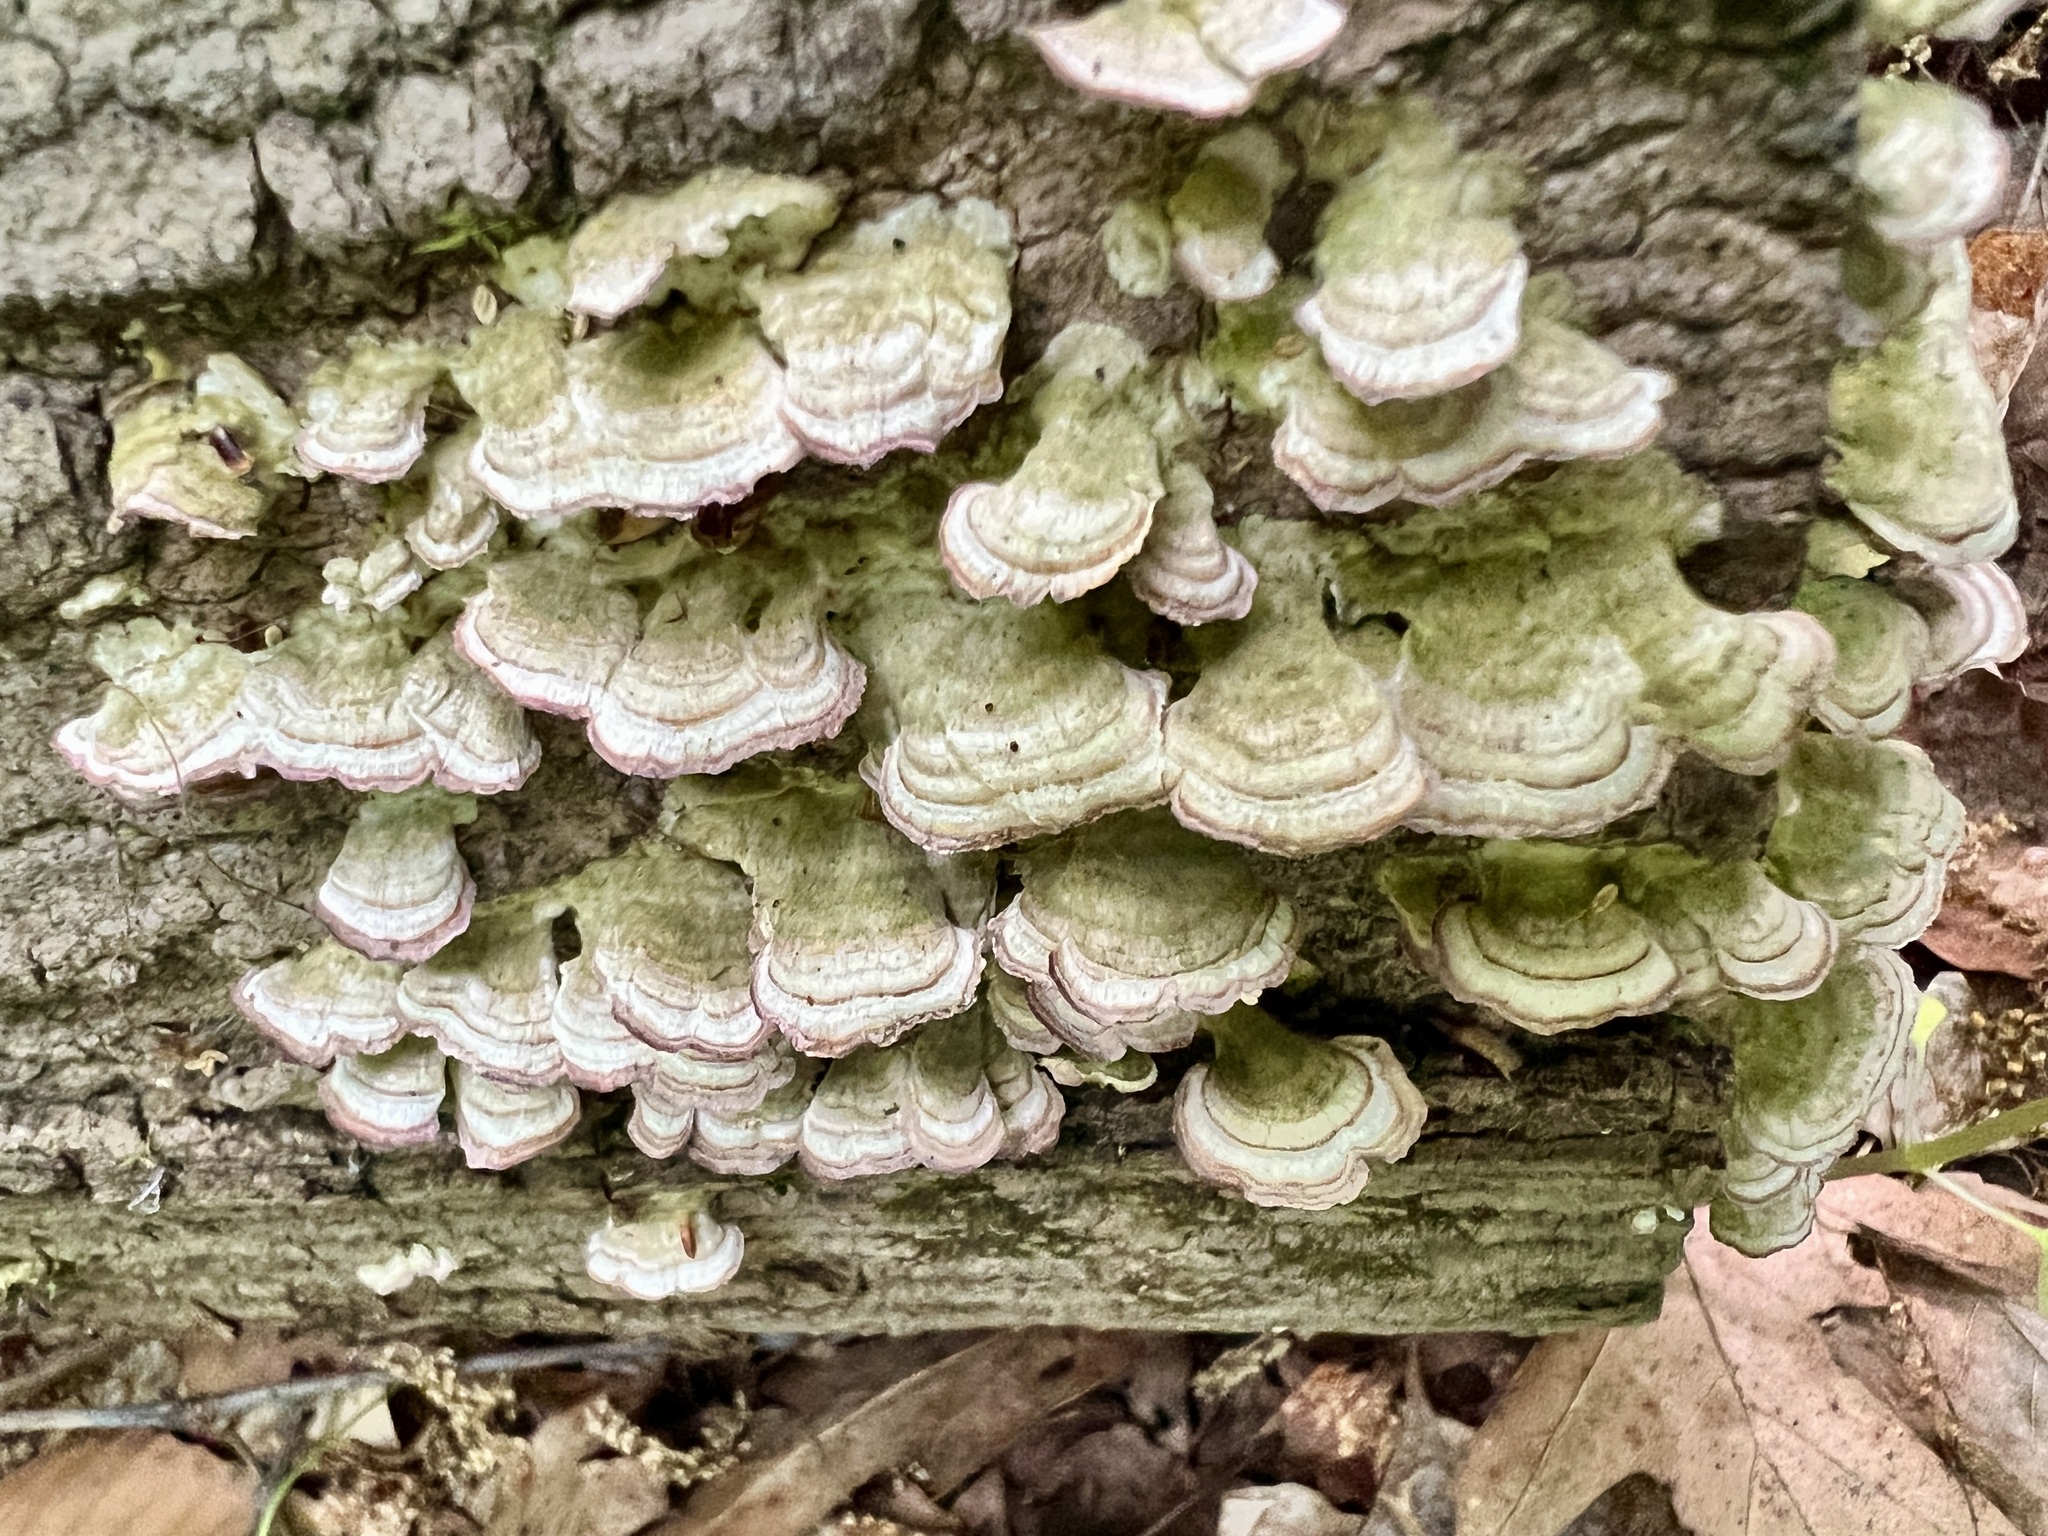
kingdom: Fungi
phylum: Basidiomycota
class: Agaricomycetes
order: Hymenochaetales
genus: Trichaptum
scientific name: Trichaptum biforme
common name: Violet-toothed polypore
